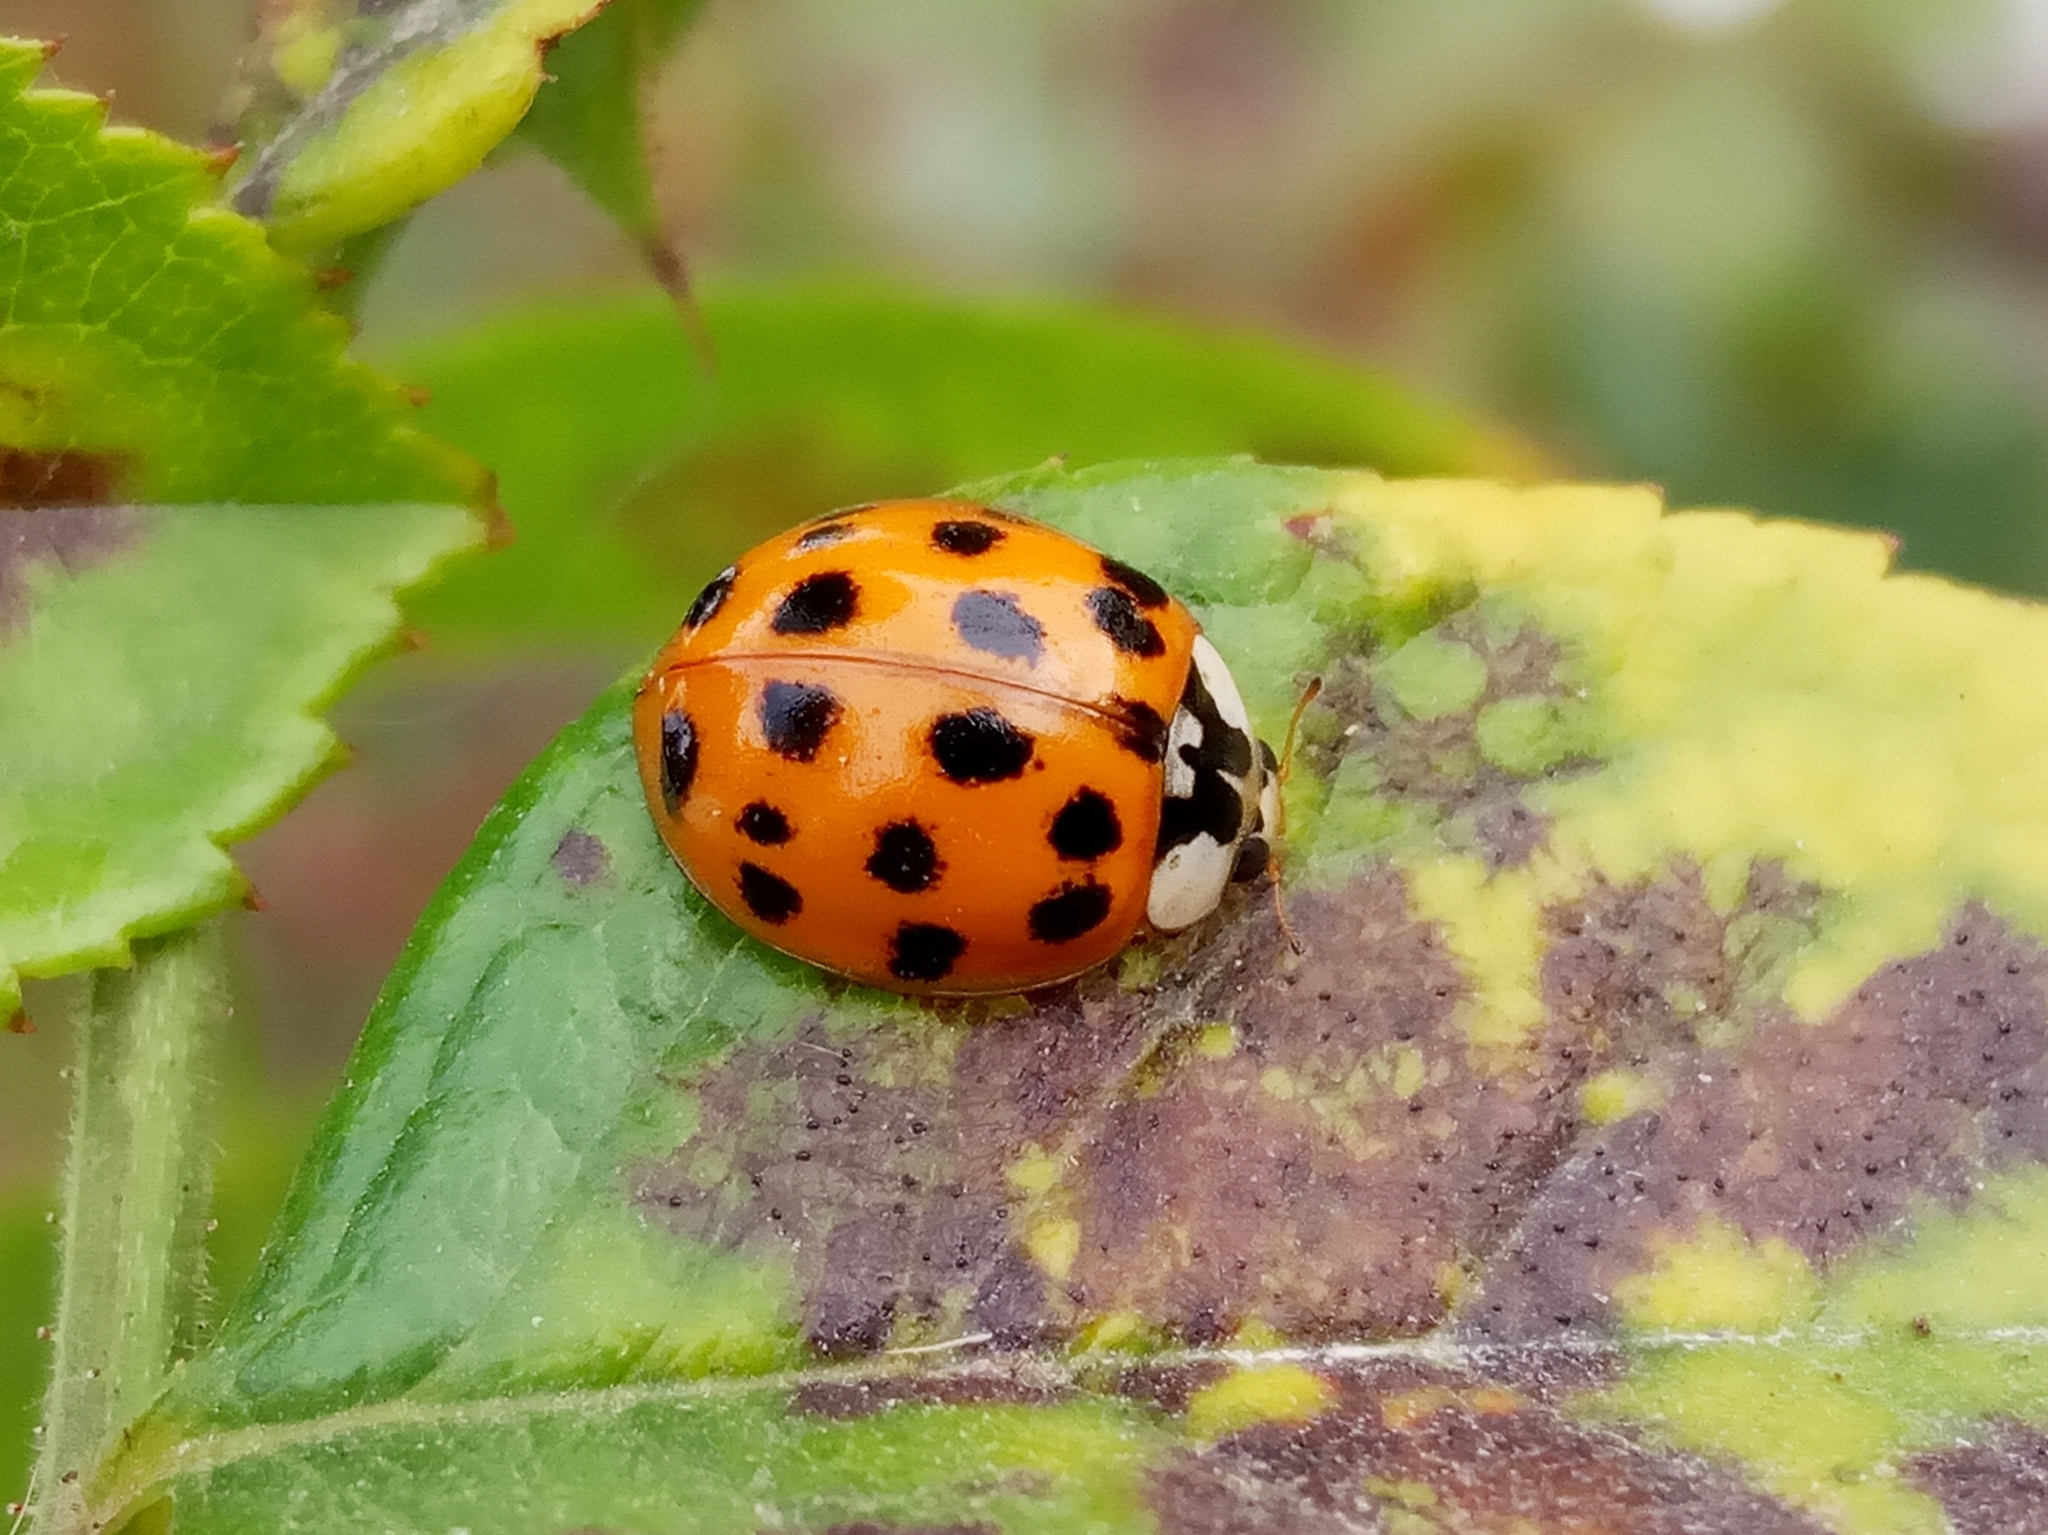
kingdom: Animalia
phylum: Arthropoda
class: Insecta
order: Coleoptera
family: Coccinellidae
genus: Harmonia
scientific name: Harmonia axyridis
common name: Harlequin ladybird
